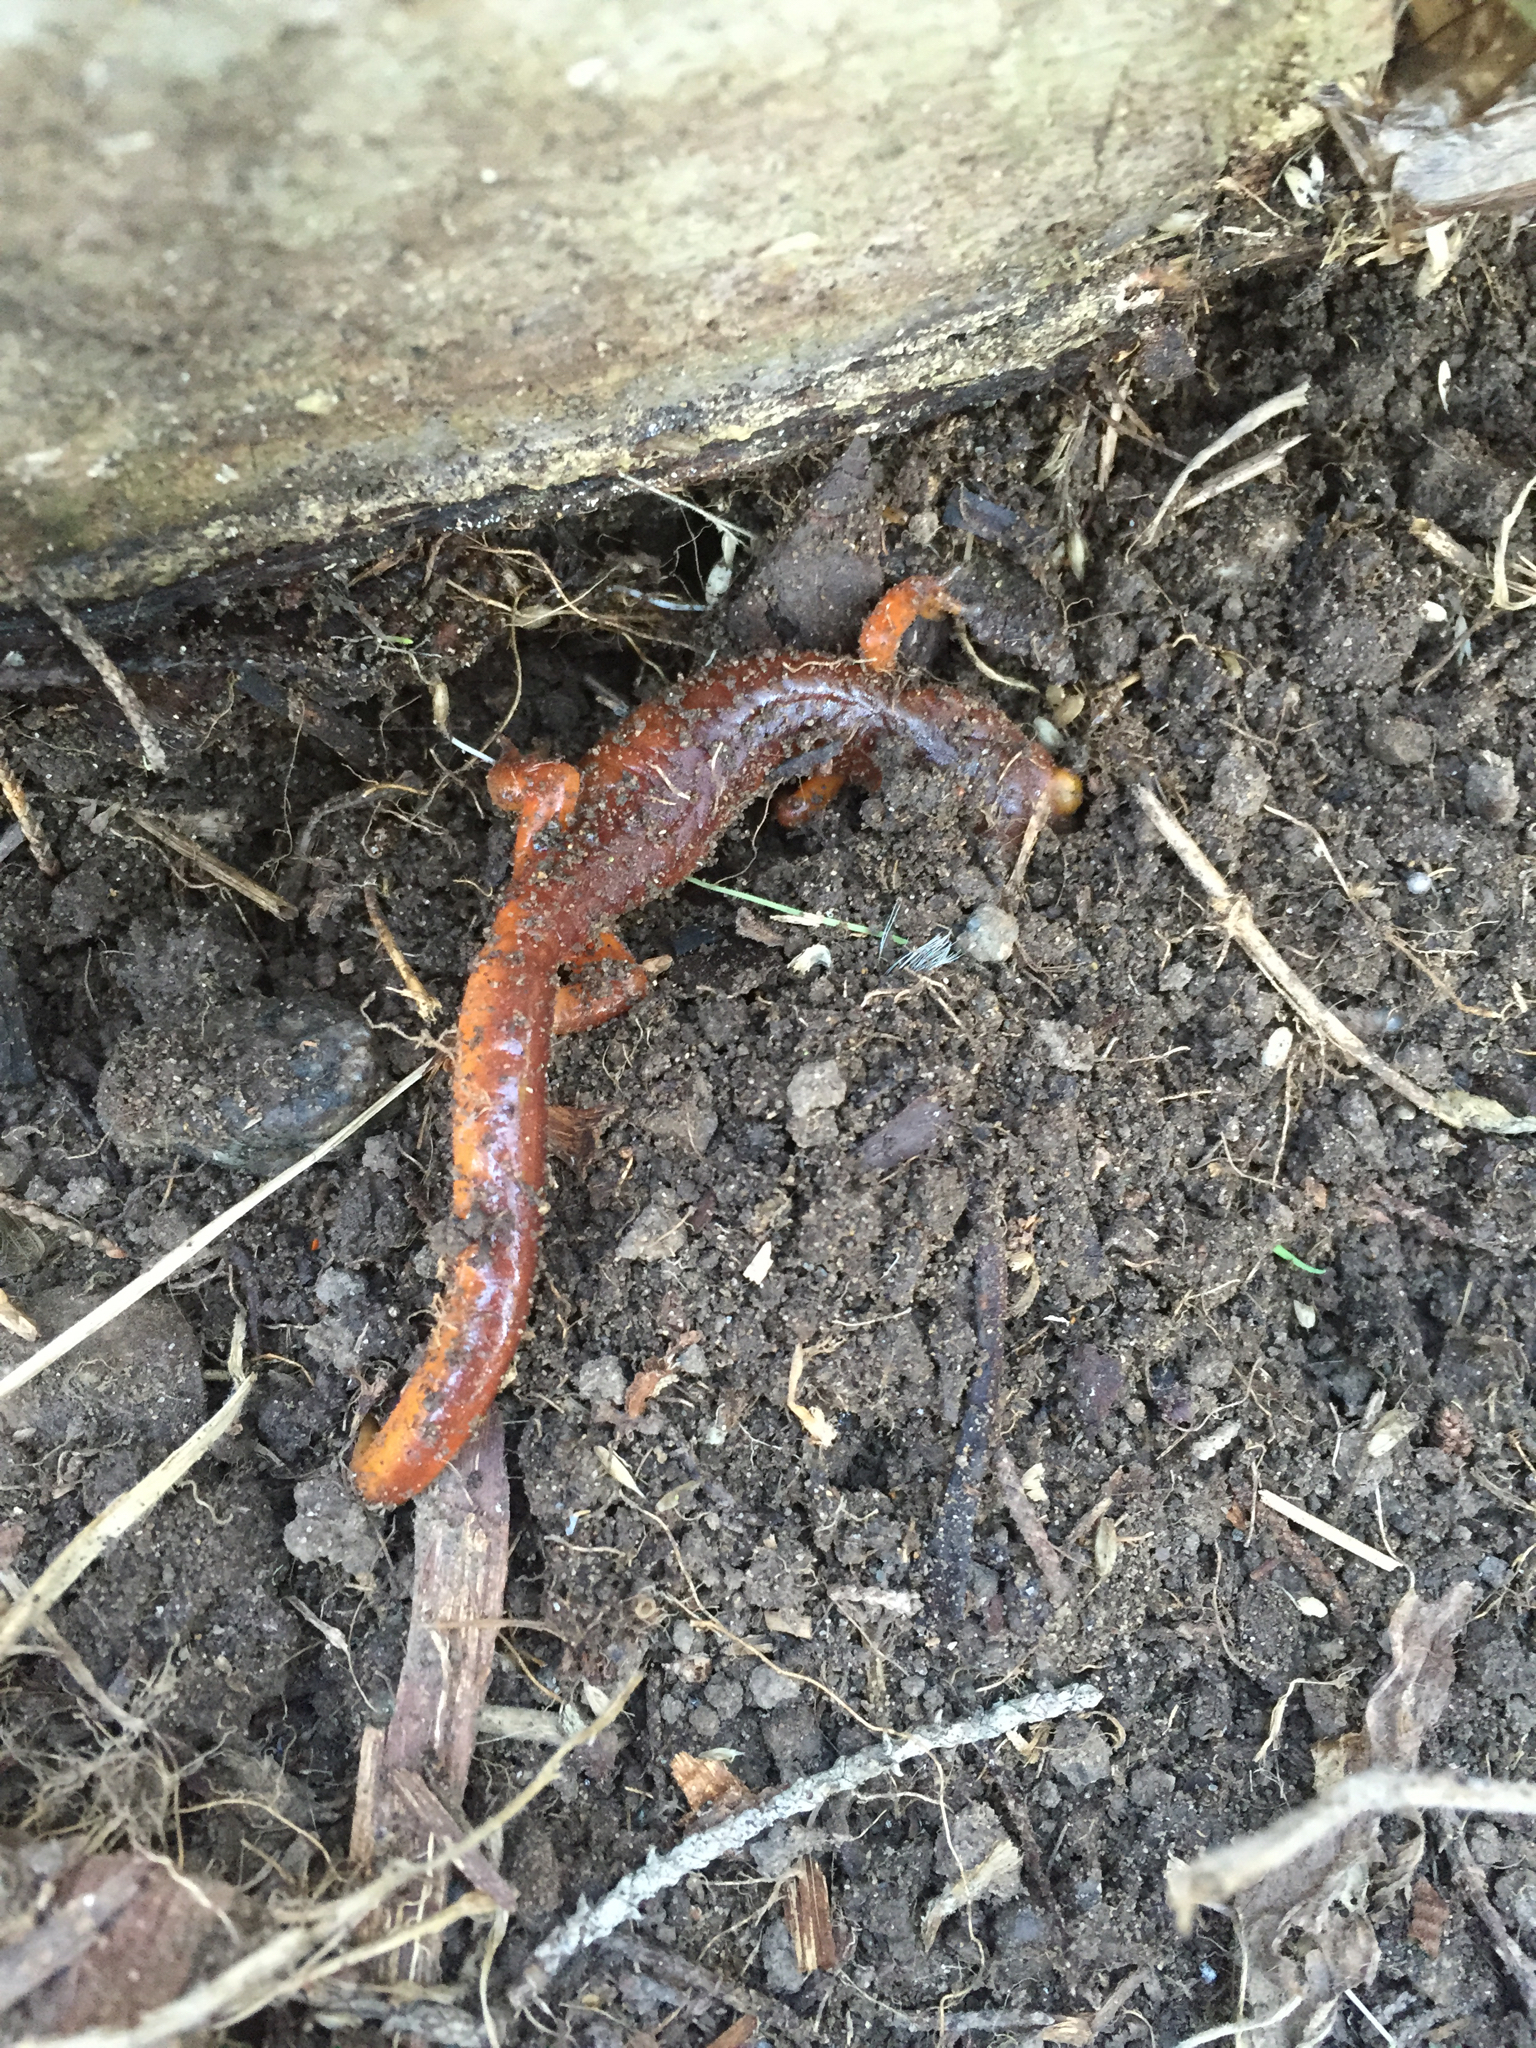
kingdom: Animalia
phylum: Chordata
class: Amphibia
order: Caudata
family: Plethodontidae
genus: Ensatina
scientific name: Ensatina eschscholtzii
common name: Ensatina
